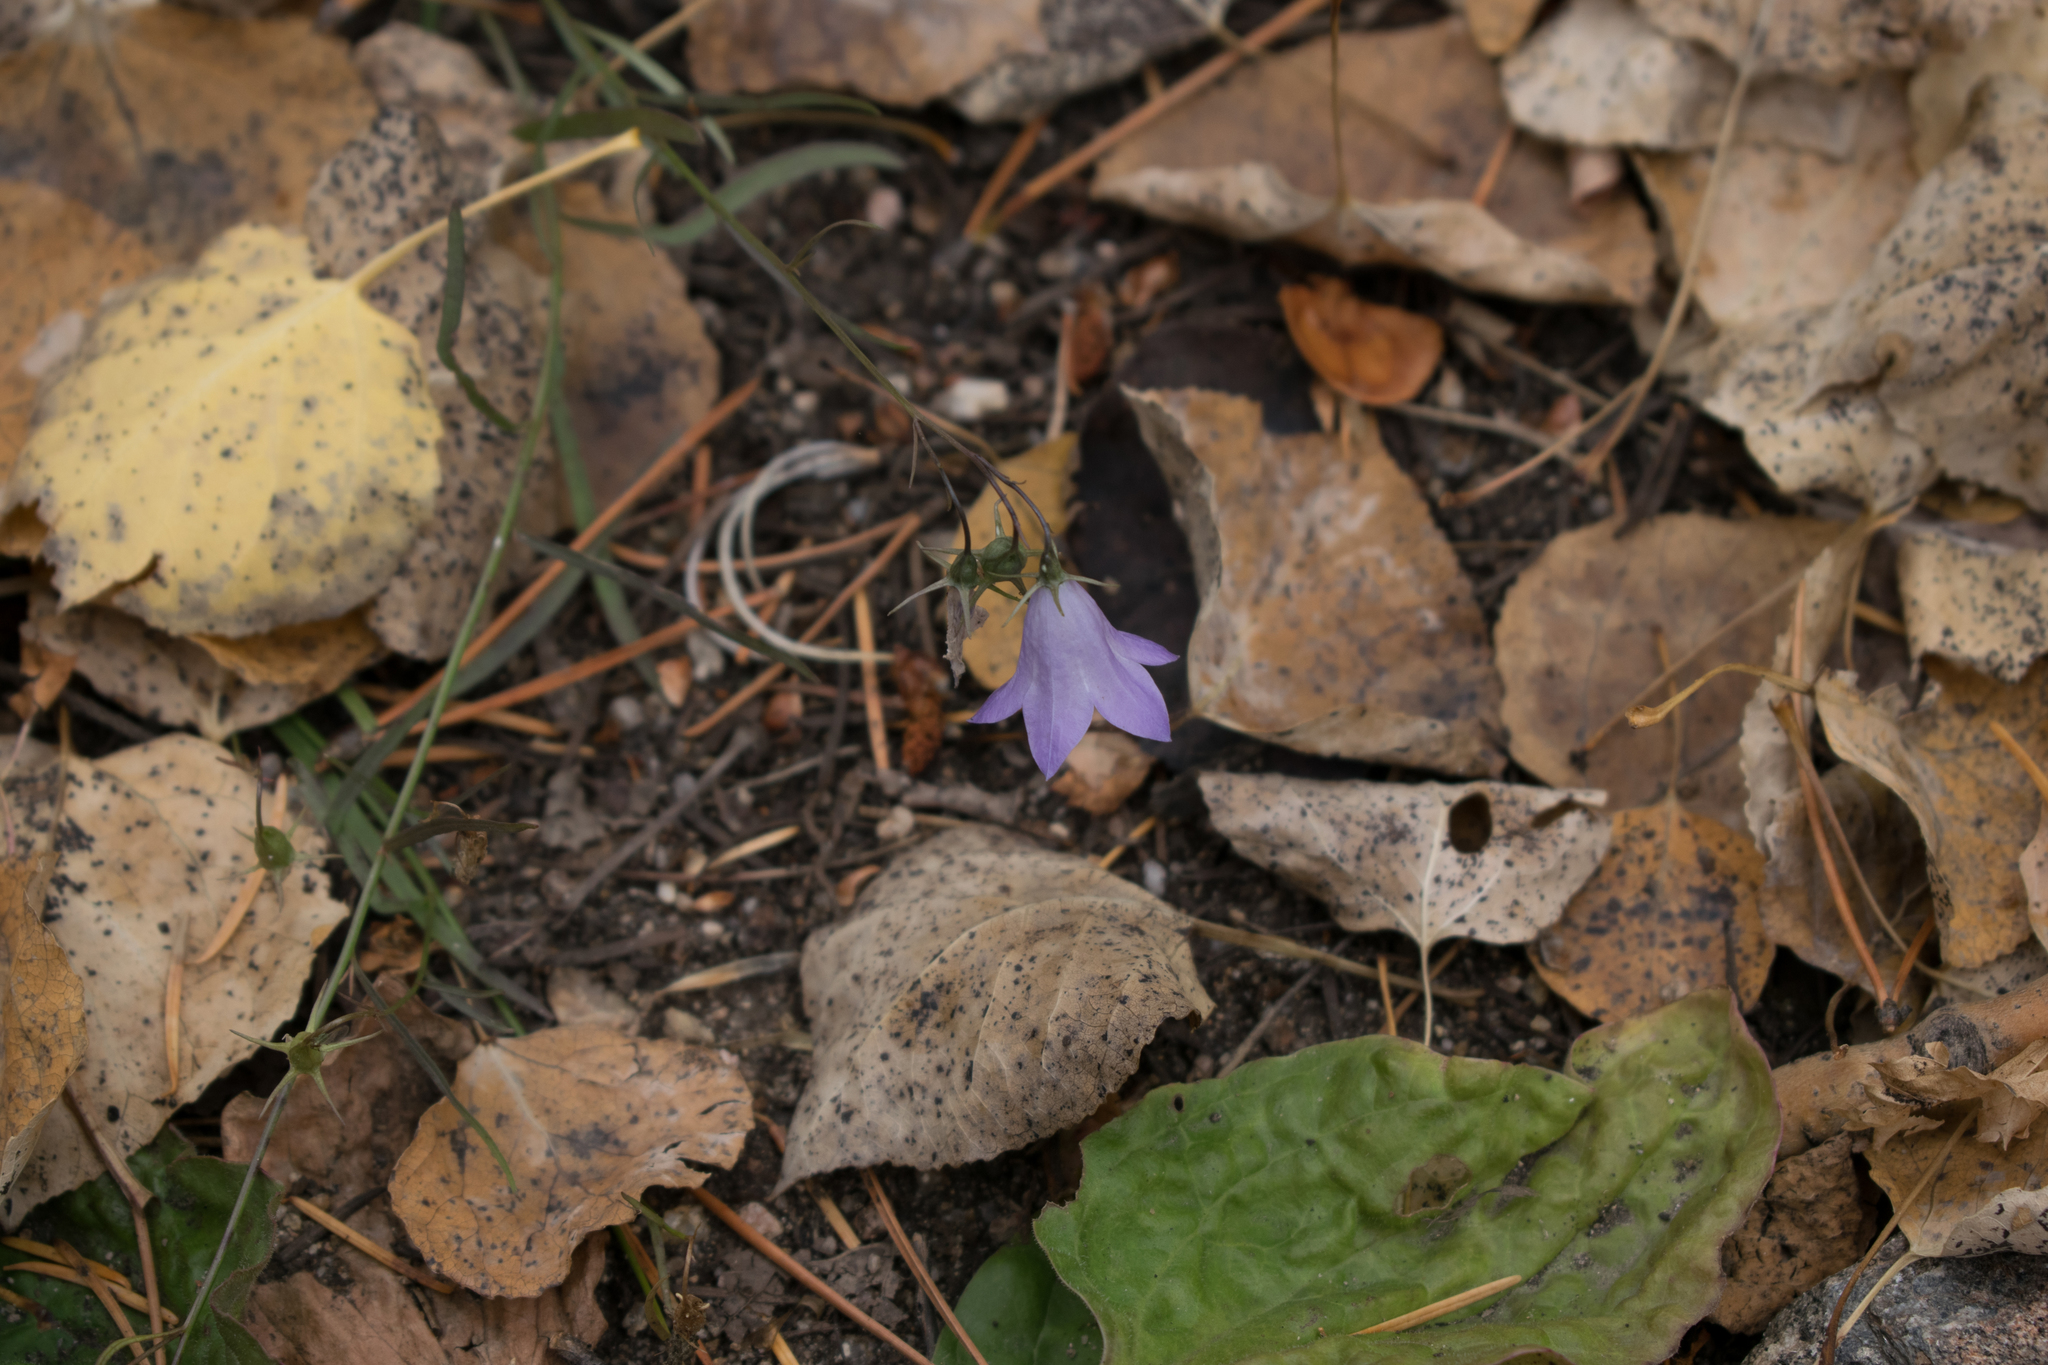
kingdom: Plantae
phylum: Tracheophyta
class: Magnoliopsida
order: Asterales
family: Campanulaceae
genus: Campanula
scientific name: Campanula petiolata
